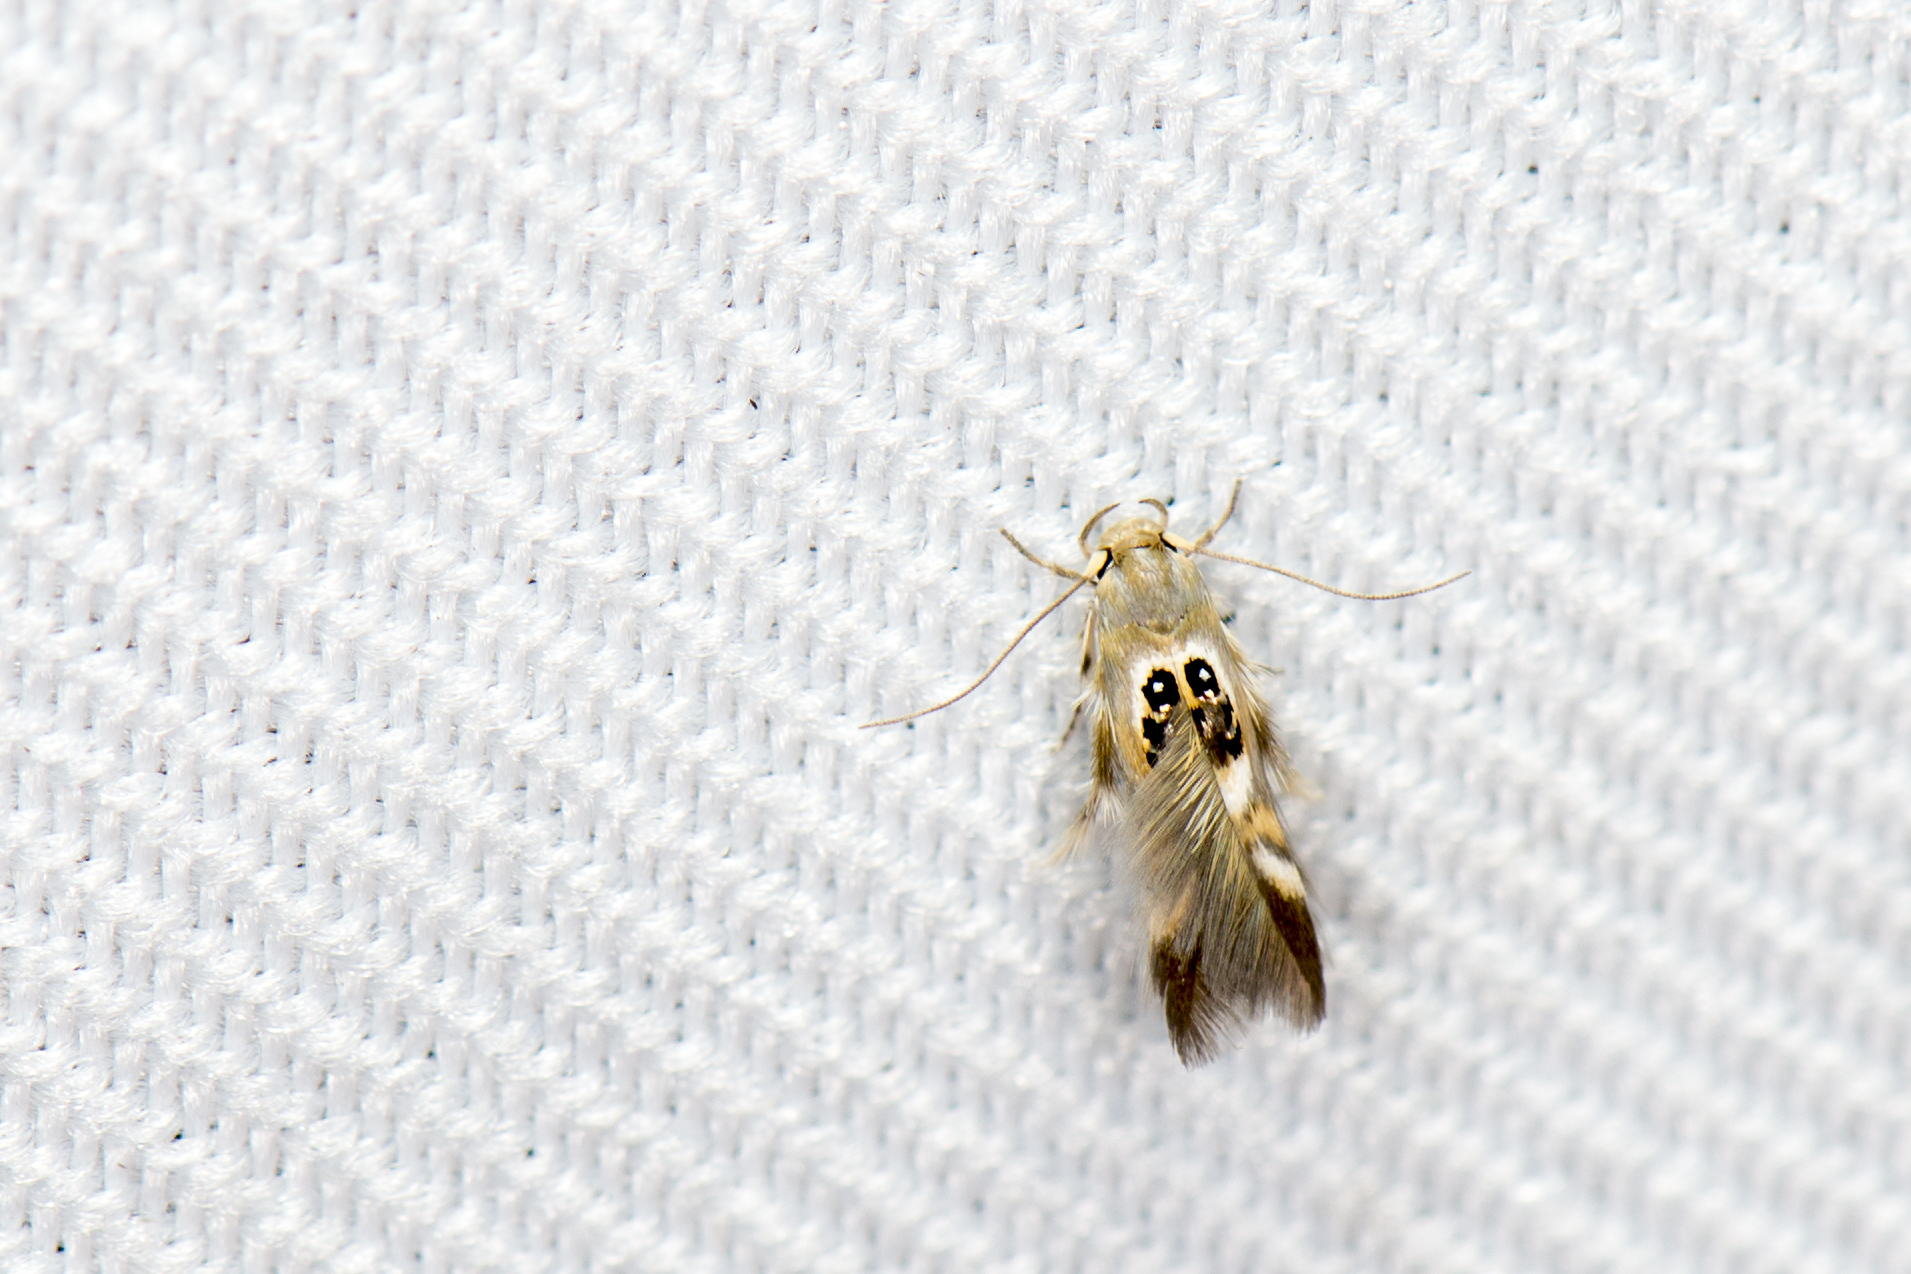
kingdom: Animalia
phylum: Arthropoda
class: Insecta
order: Lepidoptera
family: Stathmopodidae
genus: Hieromantis
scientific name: Hieromantis arcuata
